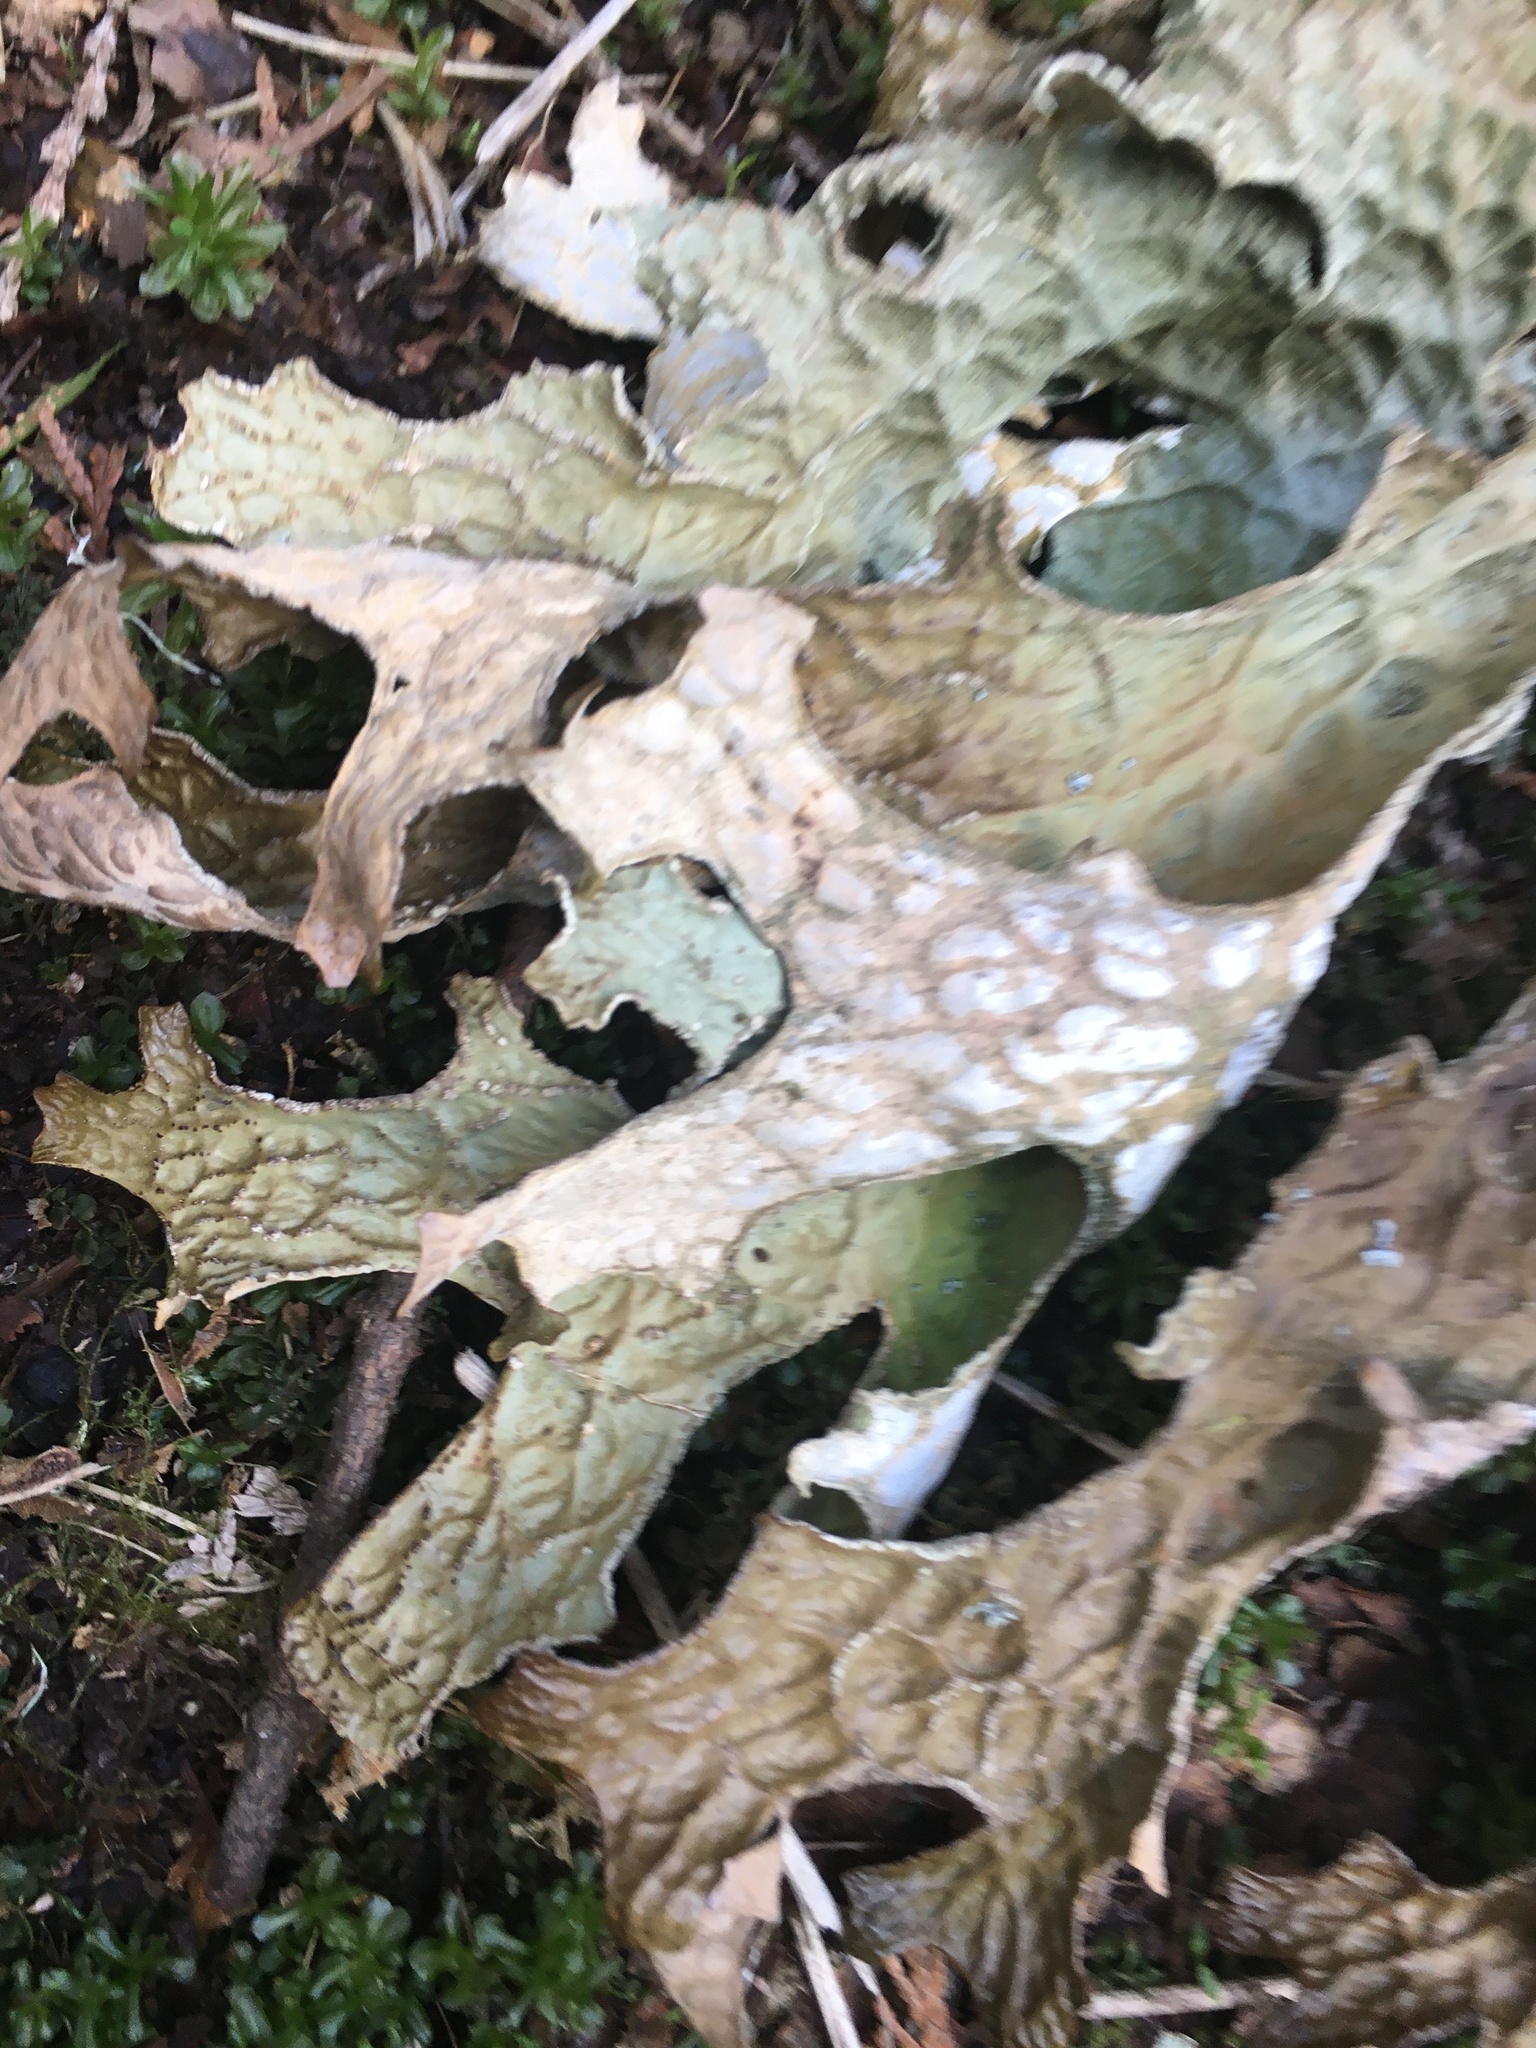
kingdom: Fungi
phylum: Ascomycota
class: Lecanoromycetes
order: Peltigerales
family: Lobariaceae
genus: Lobaria
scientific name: Lobaria pulmonaria
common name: Lungwort
